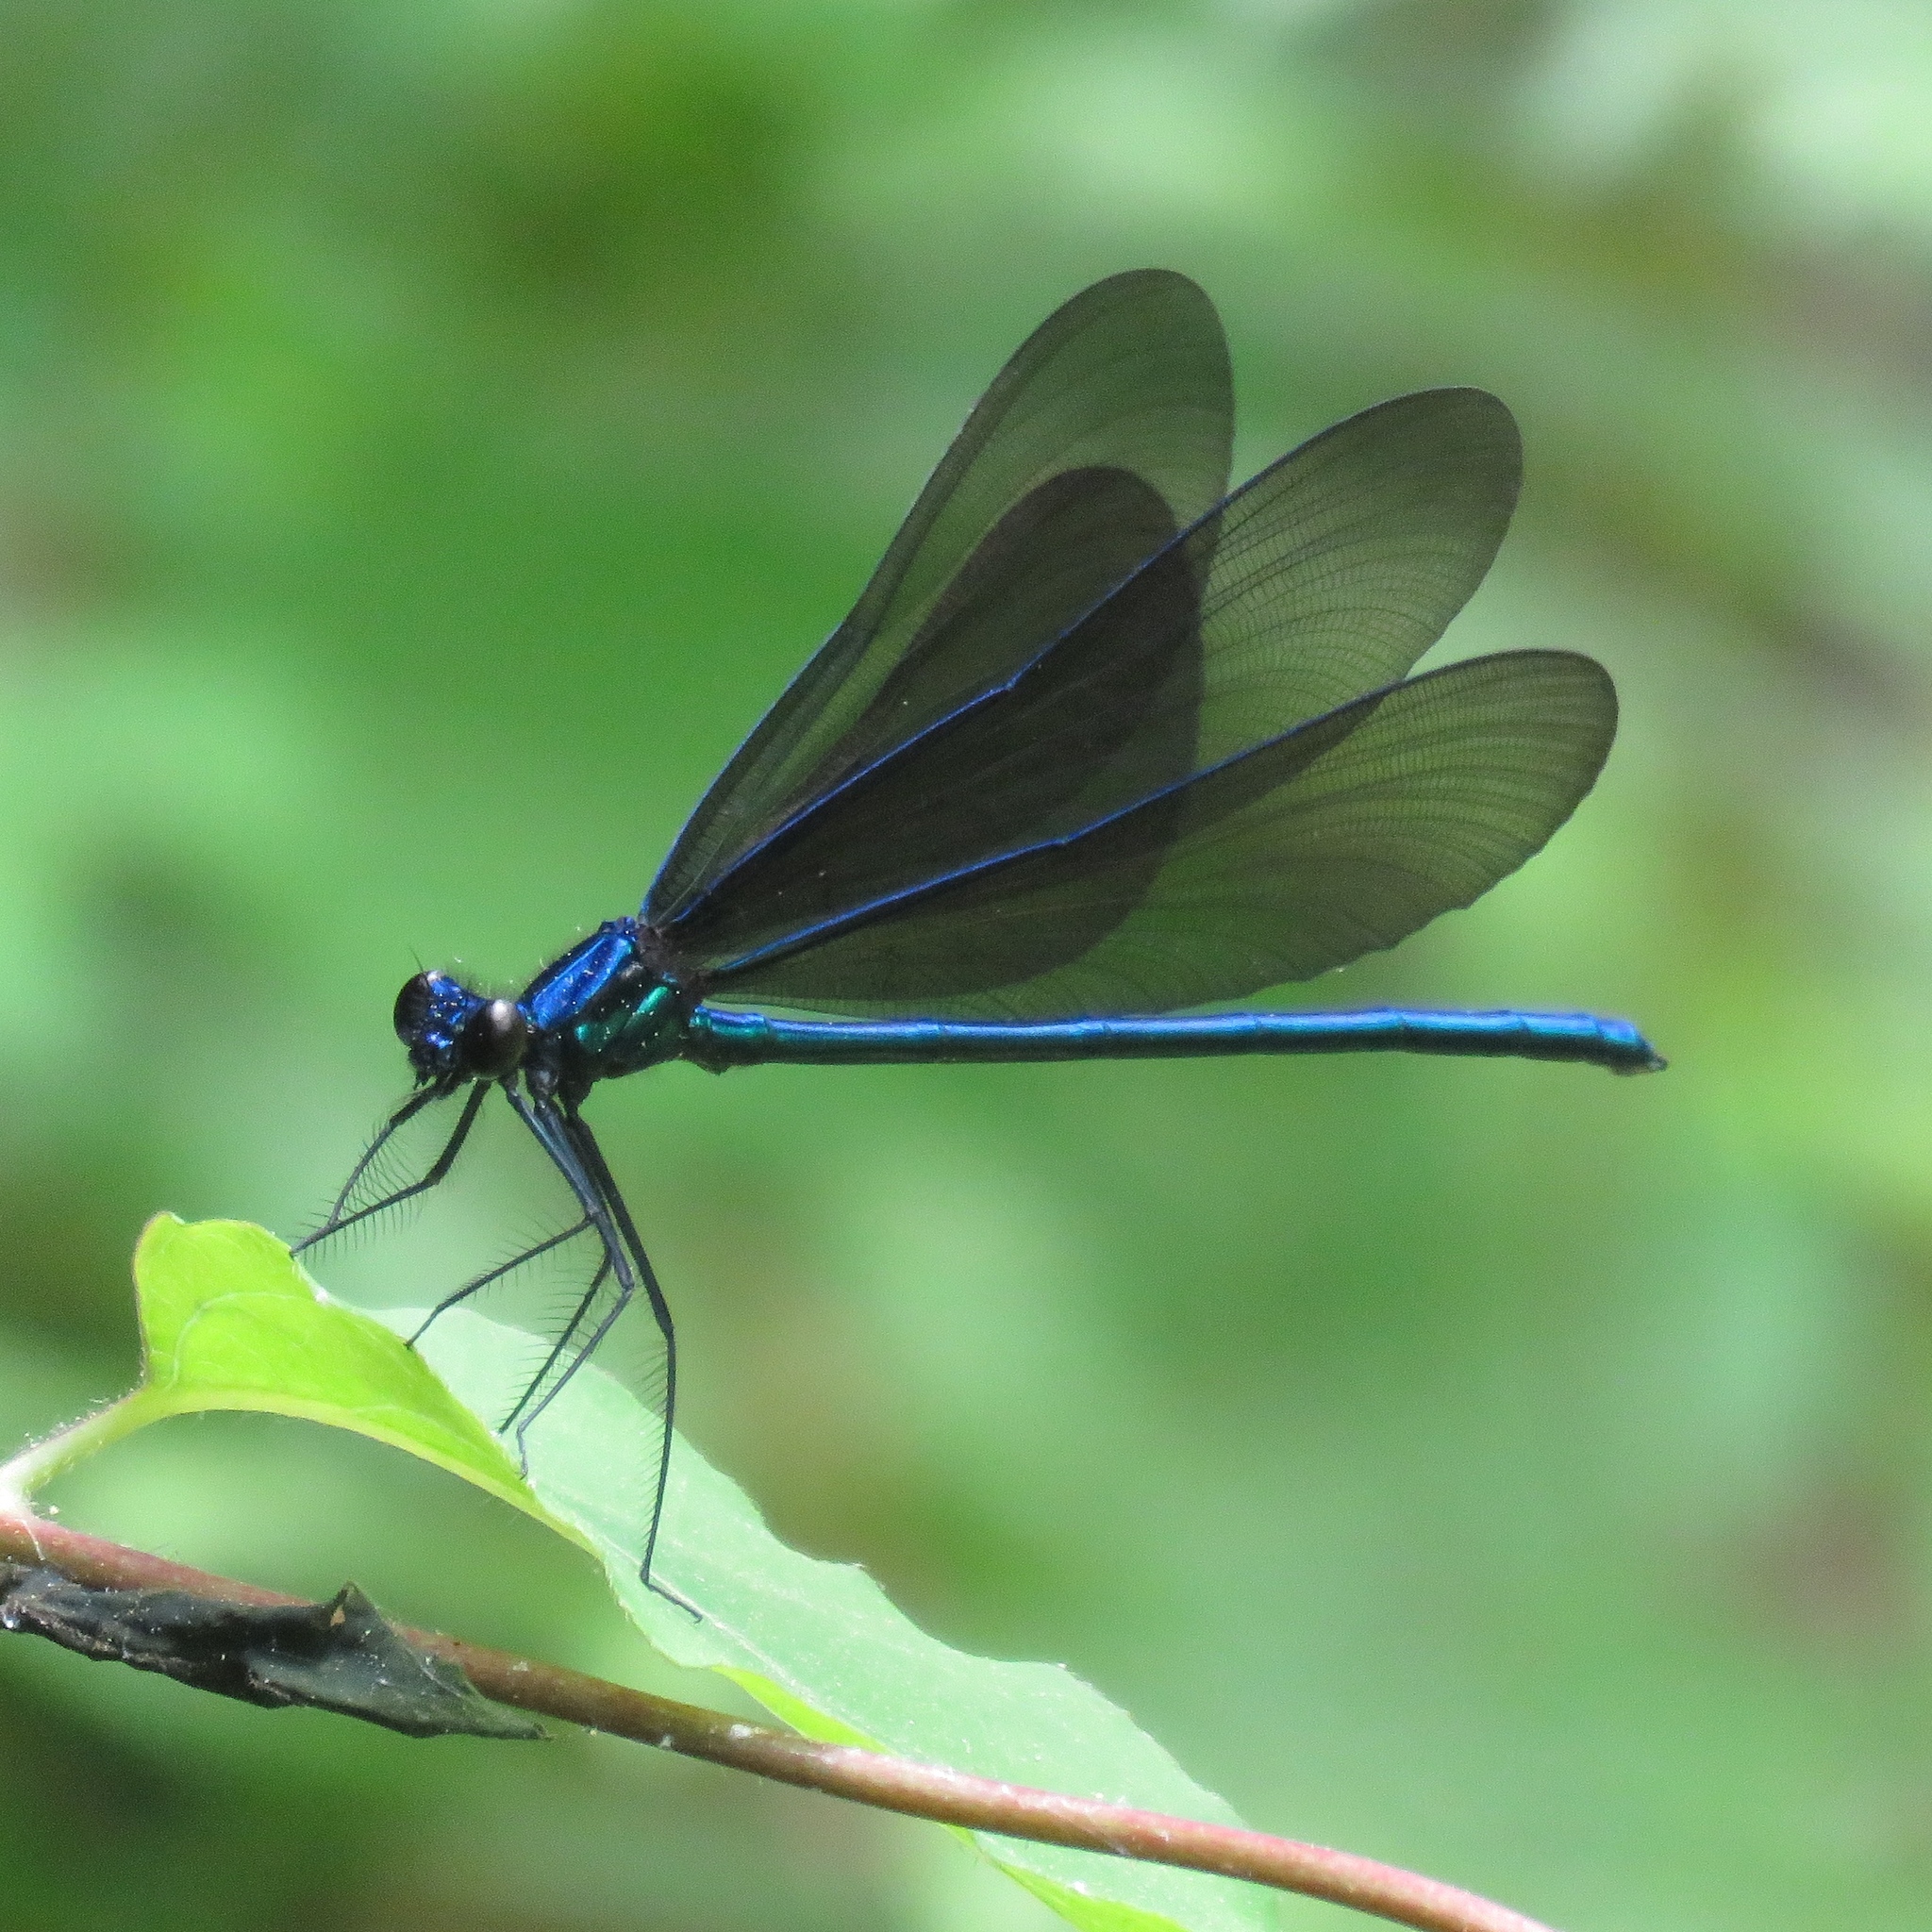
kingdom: Animalia
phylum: Arthropoda
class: Insecta
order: Odonata
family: Calopterygidae
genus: Calopteryx
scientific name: Calopteryx maculata
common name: Ebony jewelwing
